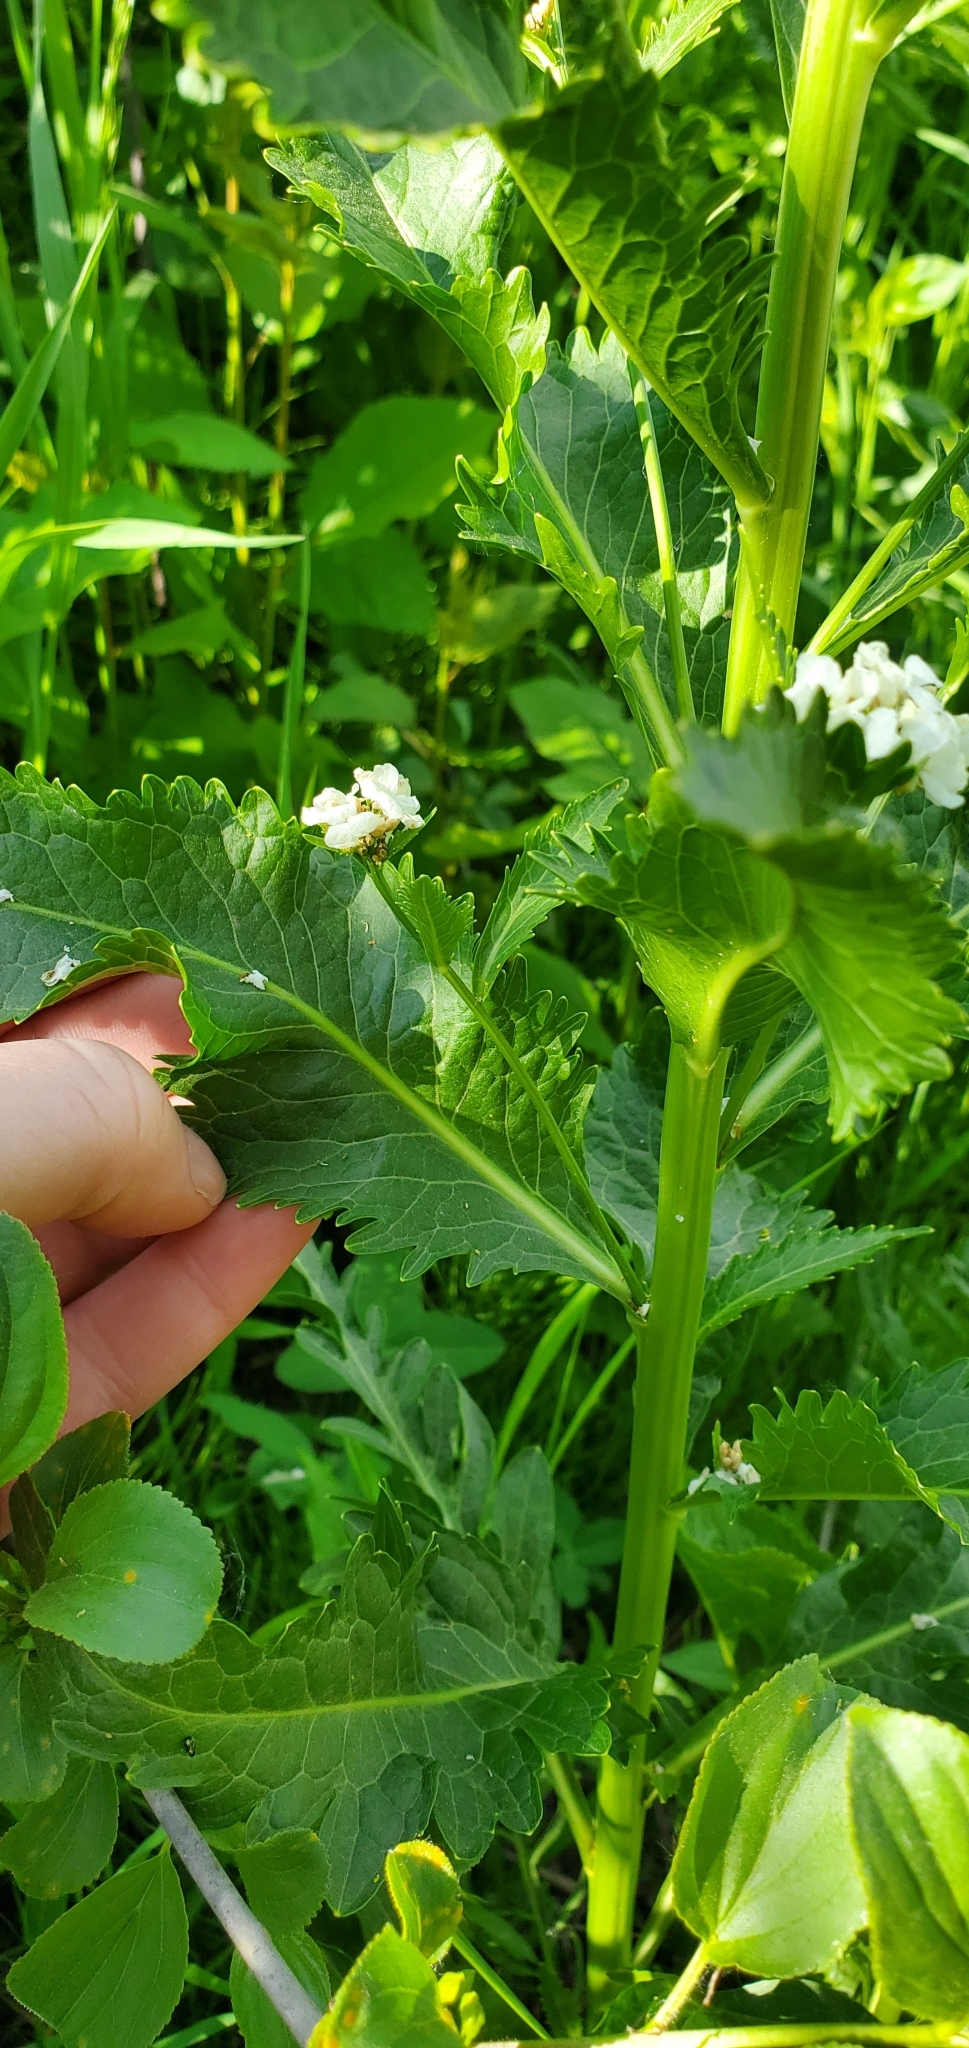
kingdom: Plantae
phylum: Tracheophyta
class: Magnoliopsida
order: Brassicales
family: Brassicaceae
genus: Armoracia
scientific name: Armoracia rusticana
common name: Horseradish
